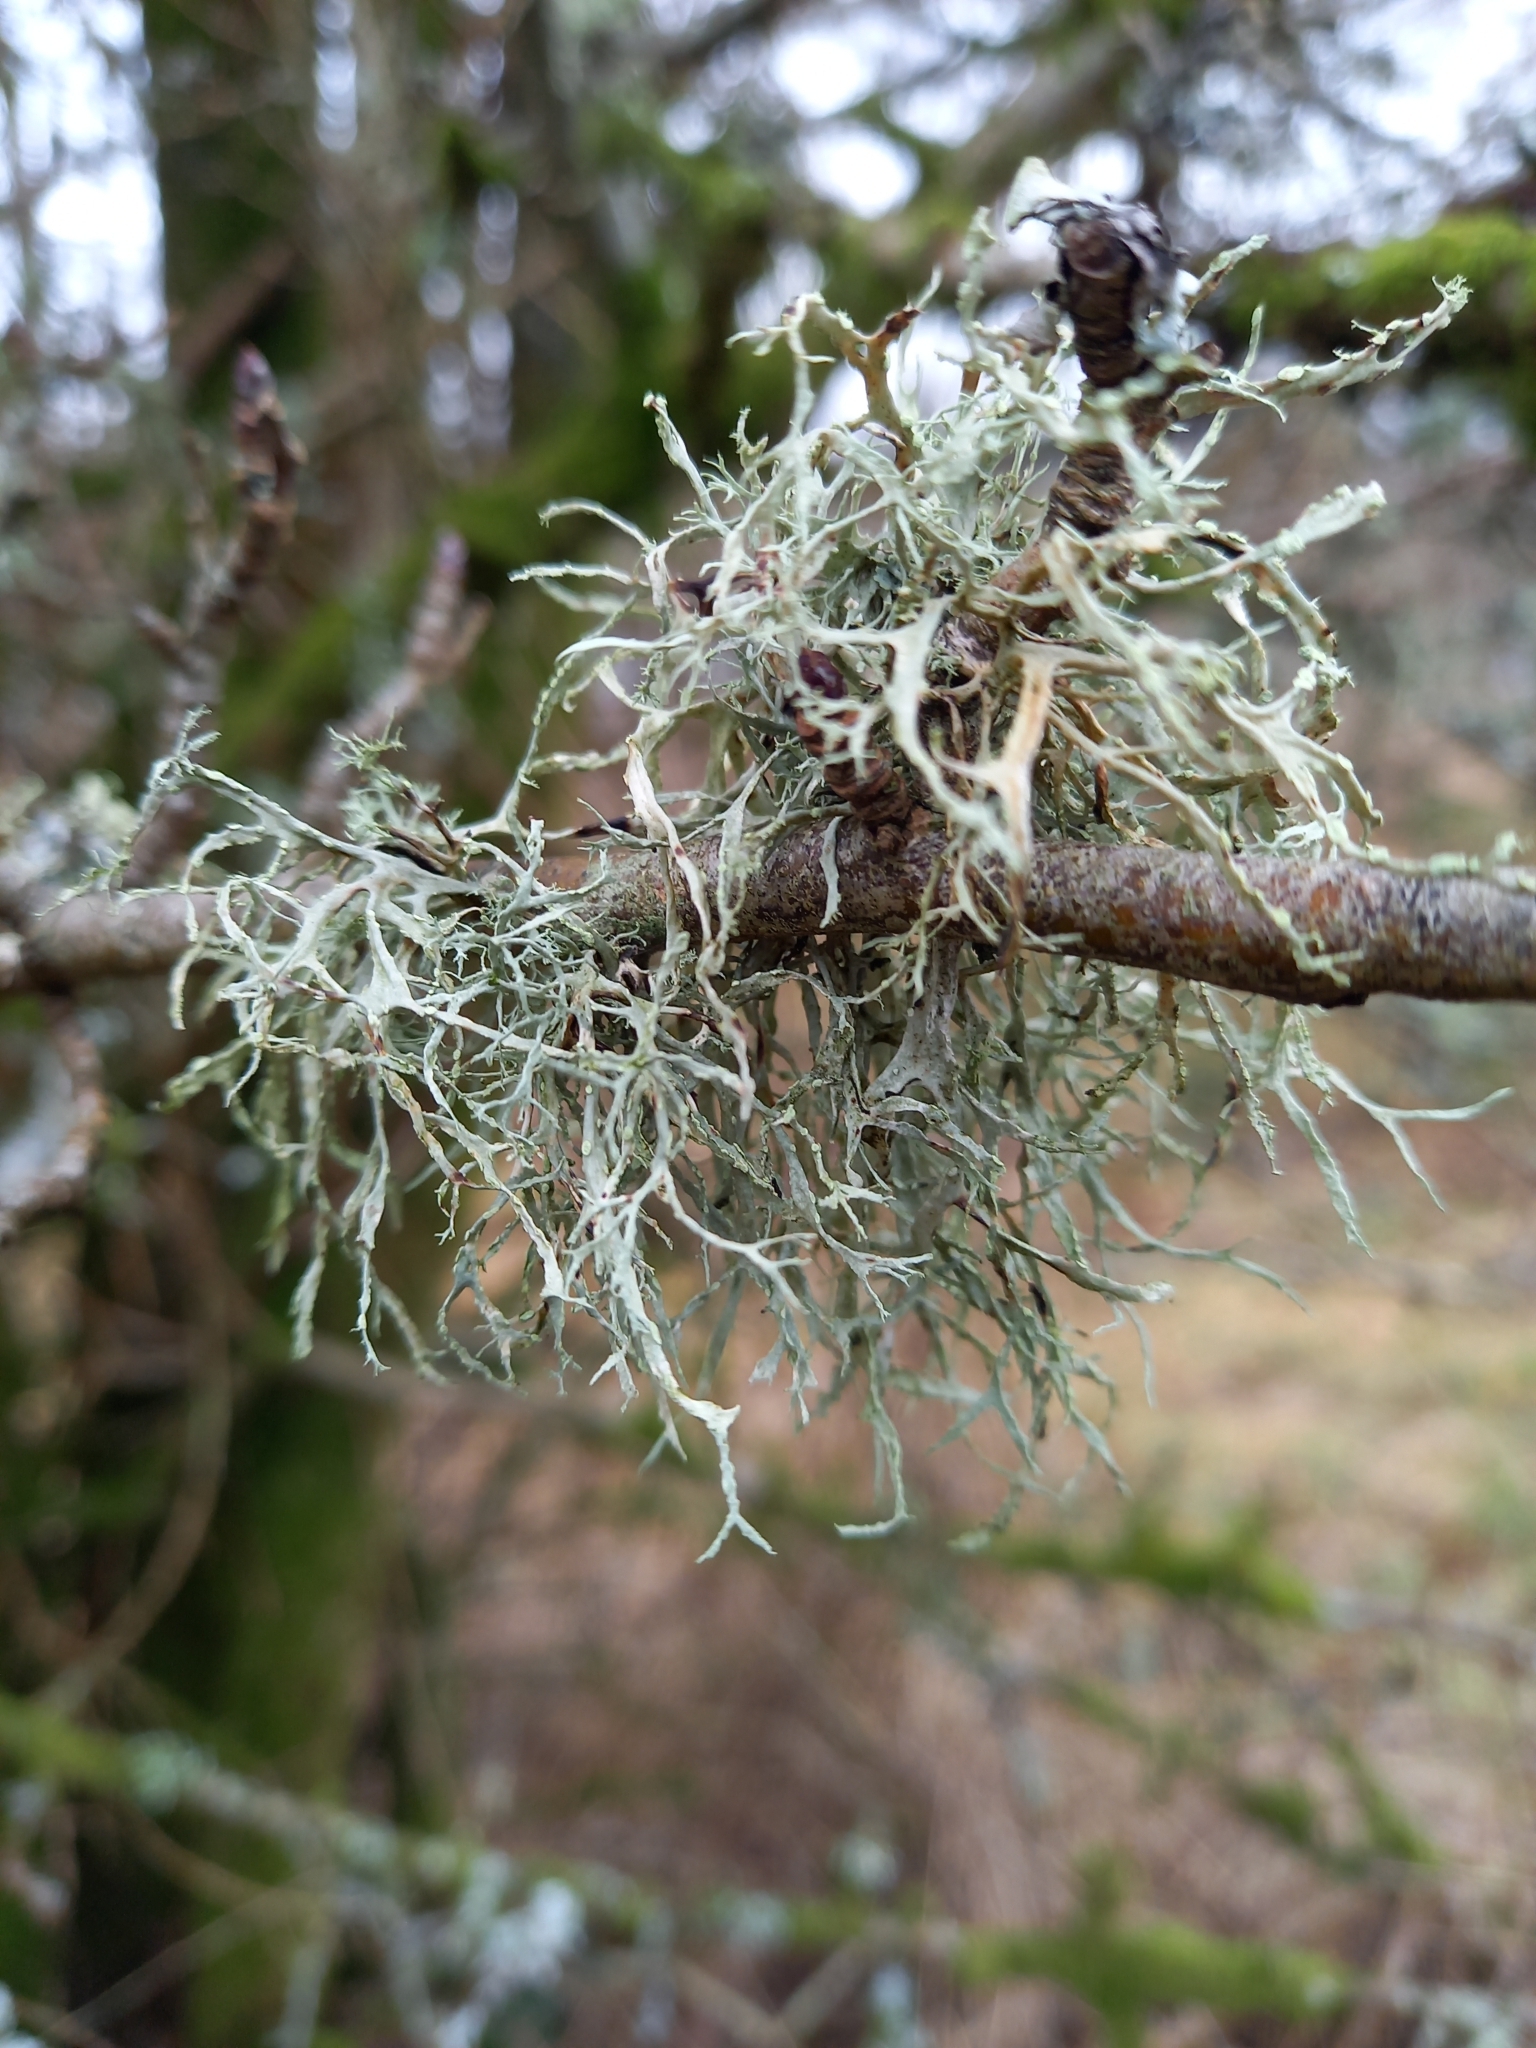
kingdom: Fungi
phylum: Ascomycota
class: Lecanoromycetes
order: Lecanorales
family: Ramalinaceae
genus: Ramalina
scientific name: Ramalina farinacea
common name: Farinose cartilage lichen
